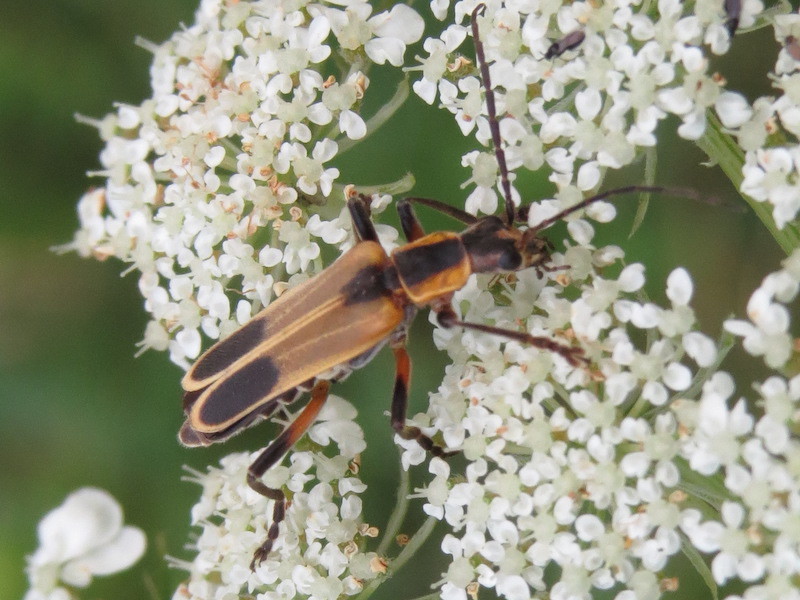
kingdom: Animalia
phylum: Arthropoda
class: Insecta
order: Coleoptera
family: Cantharidae
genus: Chauliognathus
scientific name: Chauliognathus marginatus
